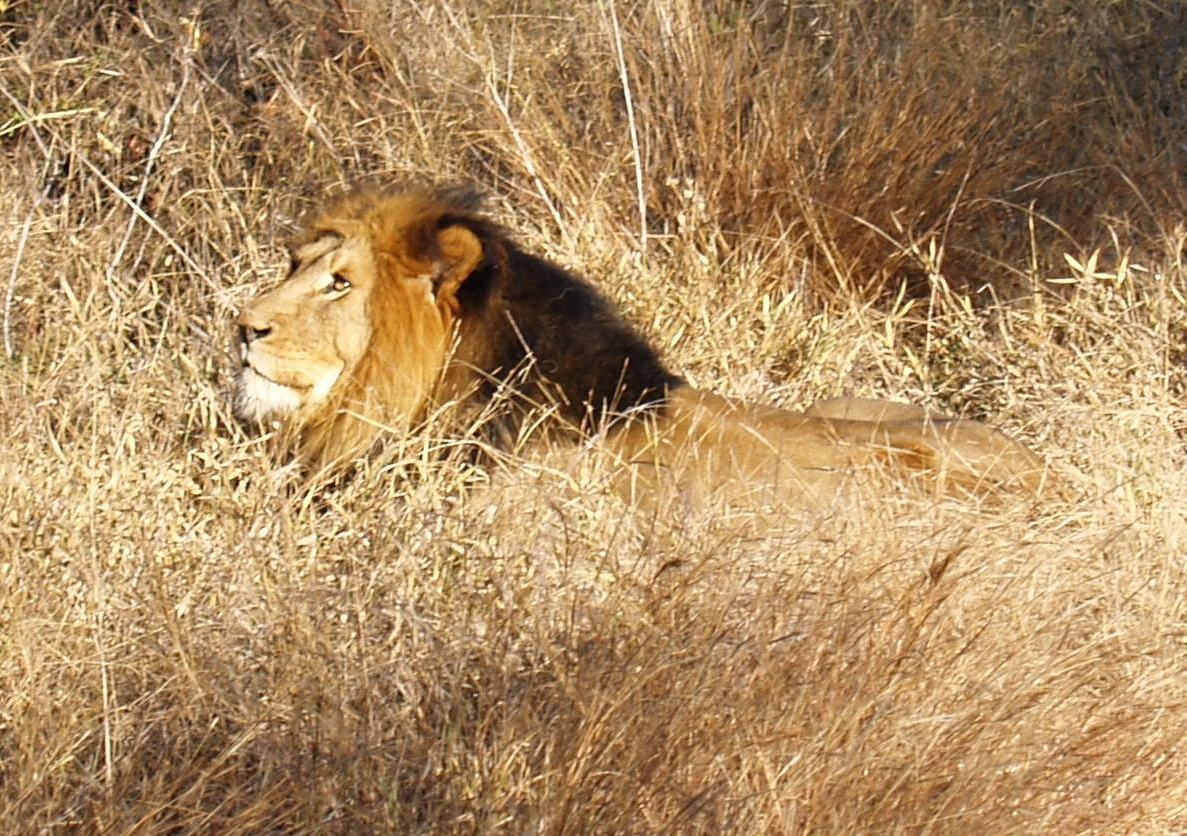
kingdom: Animalia
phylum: Chordata
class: Mammalia
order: Carnivora
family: Felidae
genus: Panthera
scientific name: Panthera leo
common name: Lion
